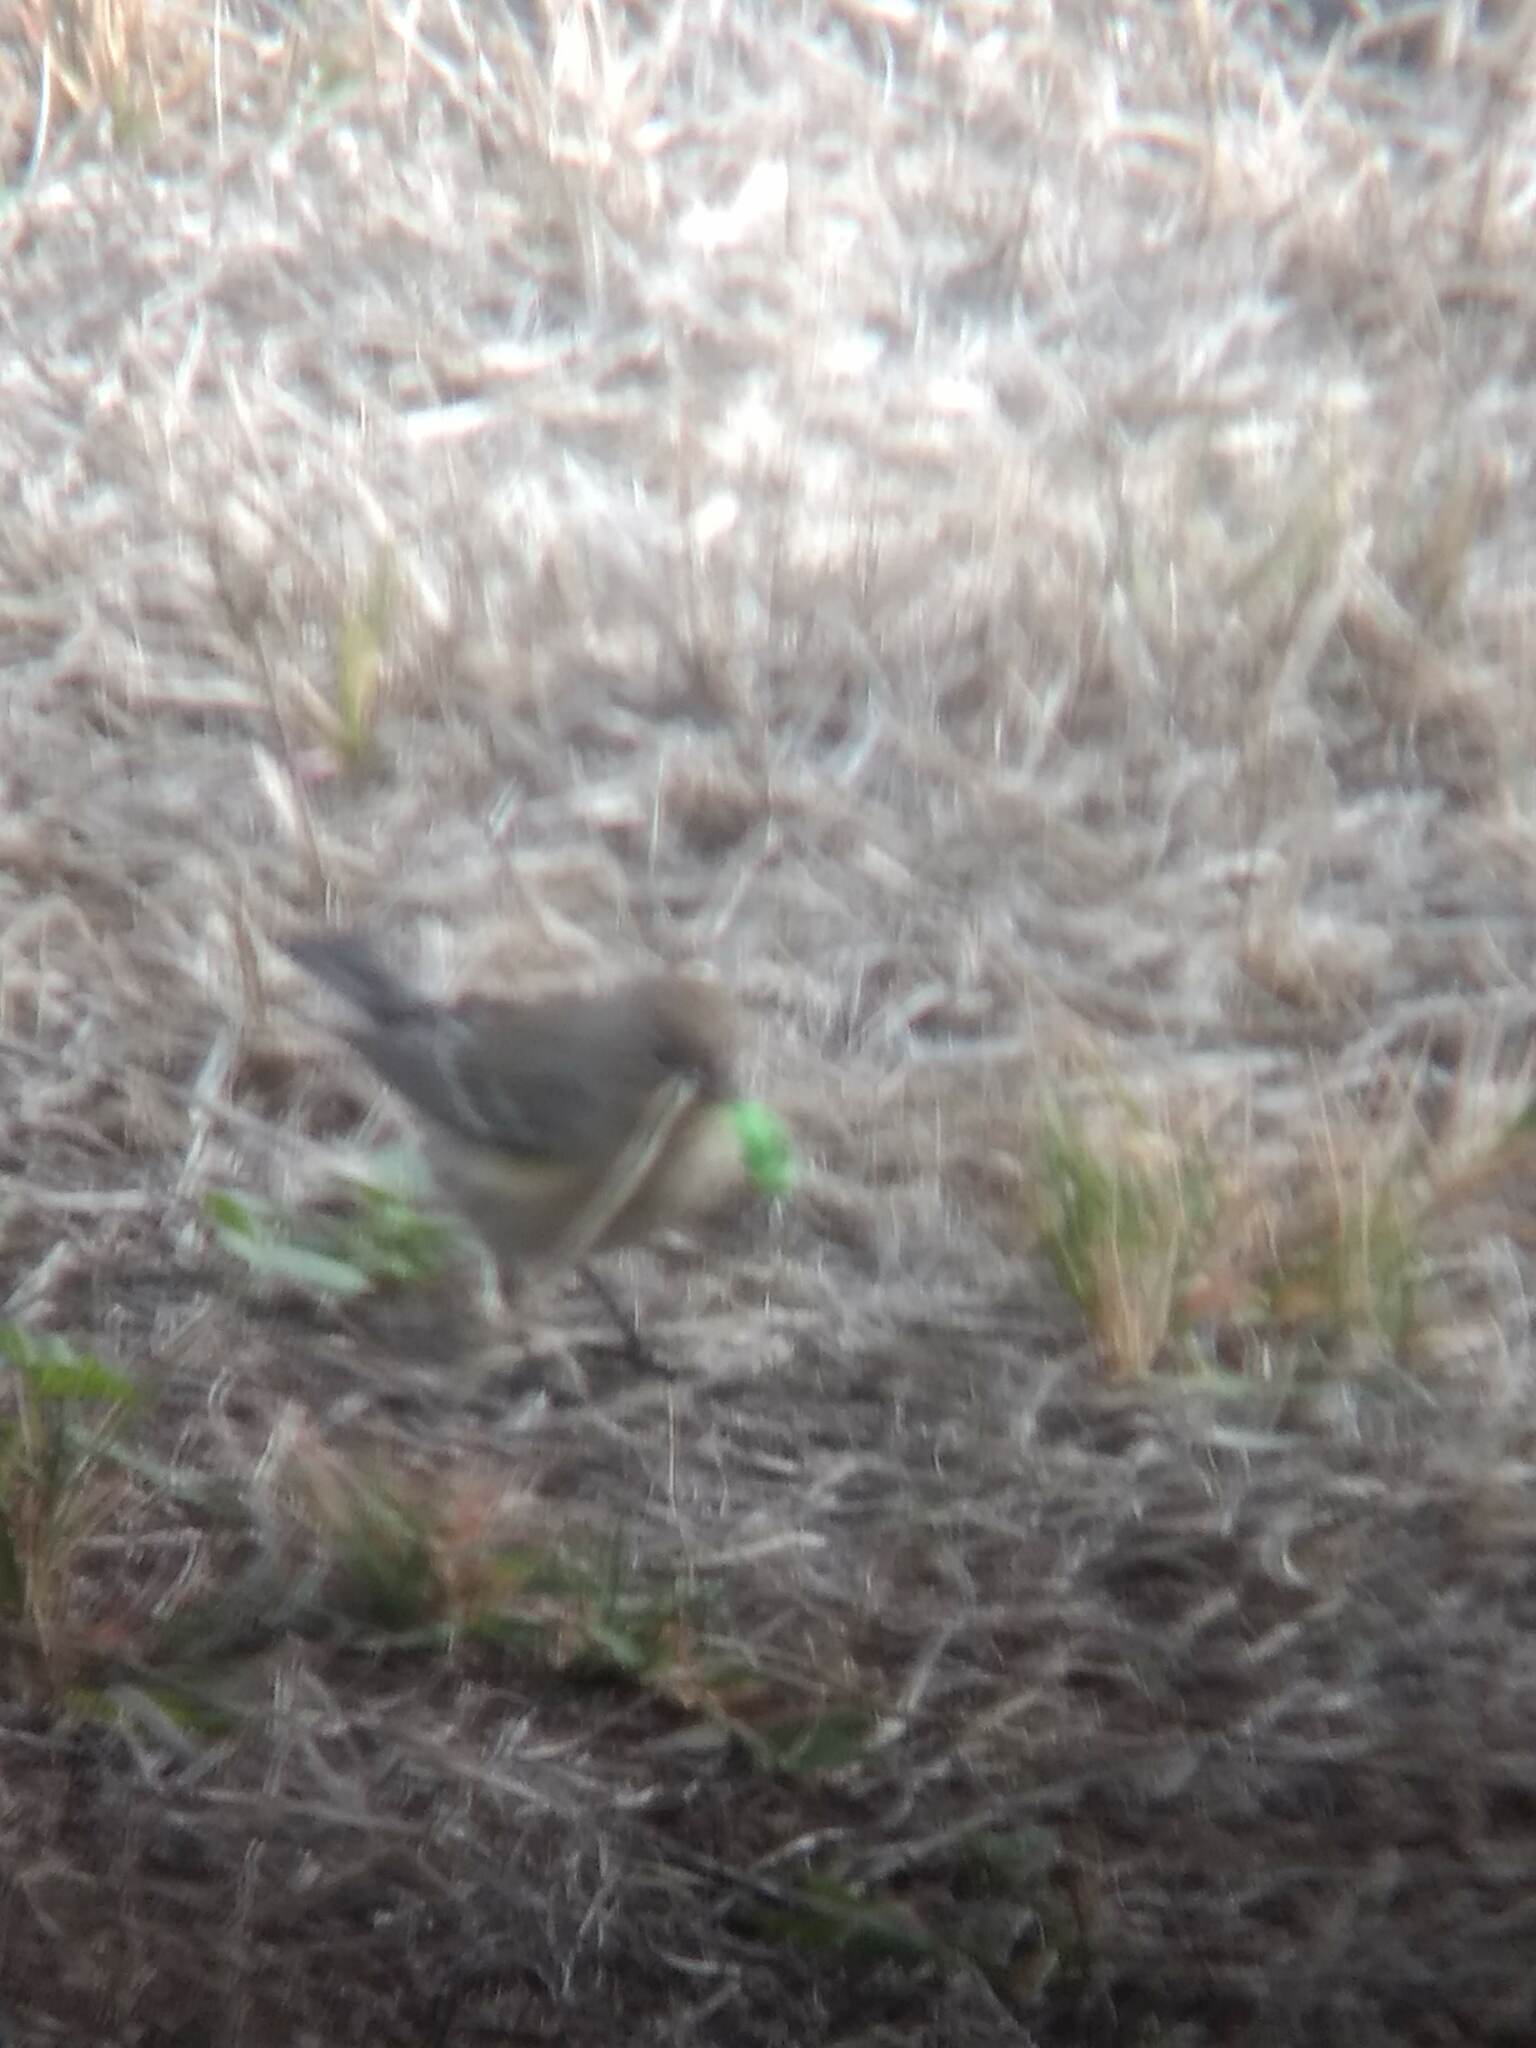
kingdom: Animalia
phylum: Chordata
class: Aves
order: Passeriformes
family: Parulidae
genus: Setophaga
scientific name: Setophaga coronata
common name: Myrtle warbler
